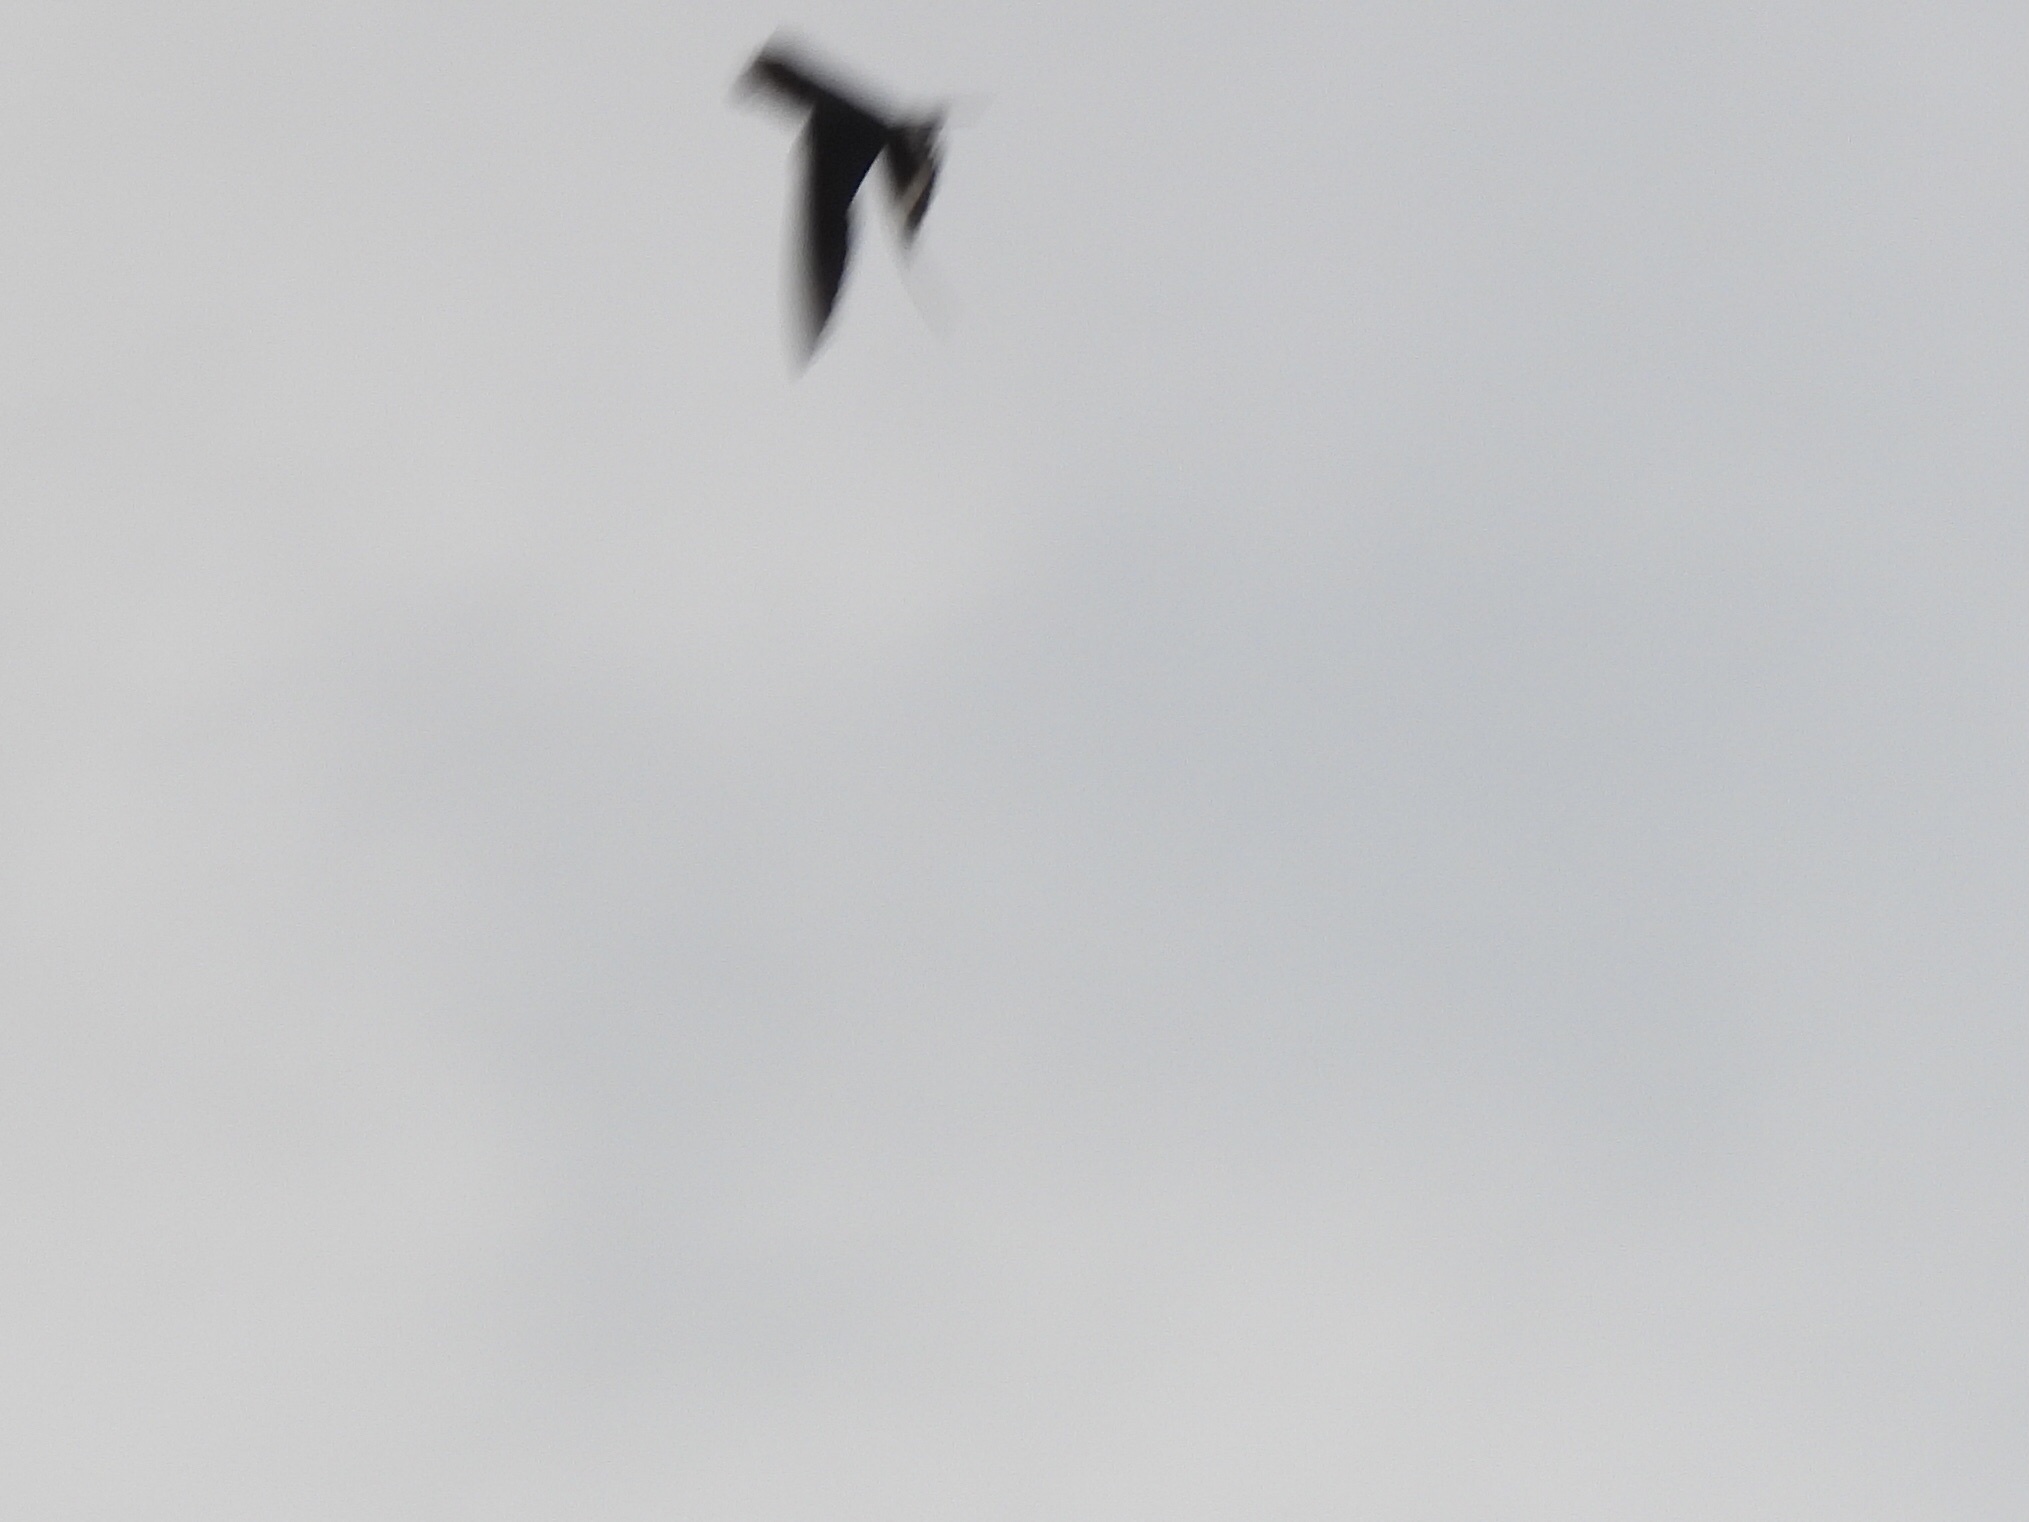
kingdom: Animalia
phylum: Chordata
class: Aves
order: Passeriformes
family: Hirundinidae
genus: Hirundo
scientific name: Hirundo rustica
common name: Barn swallow
